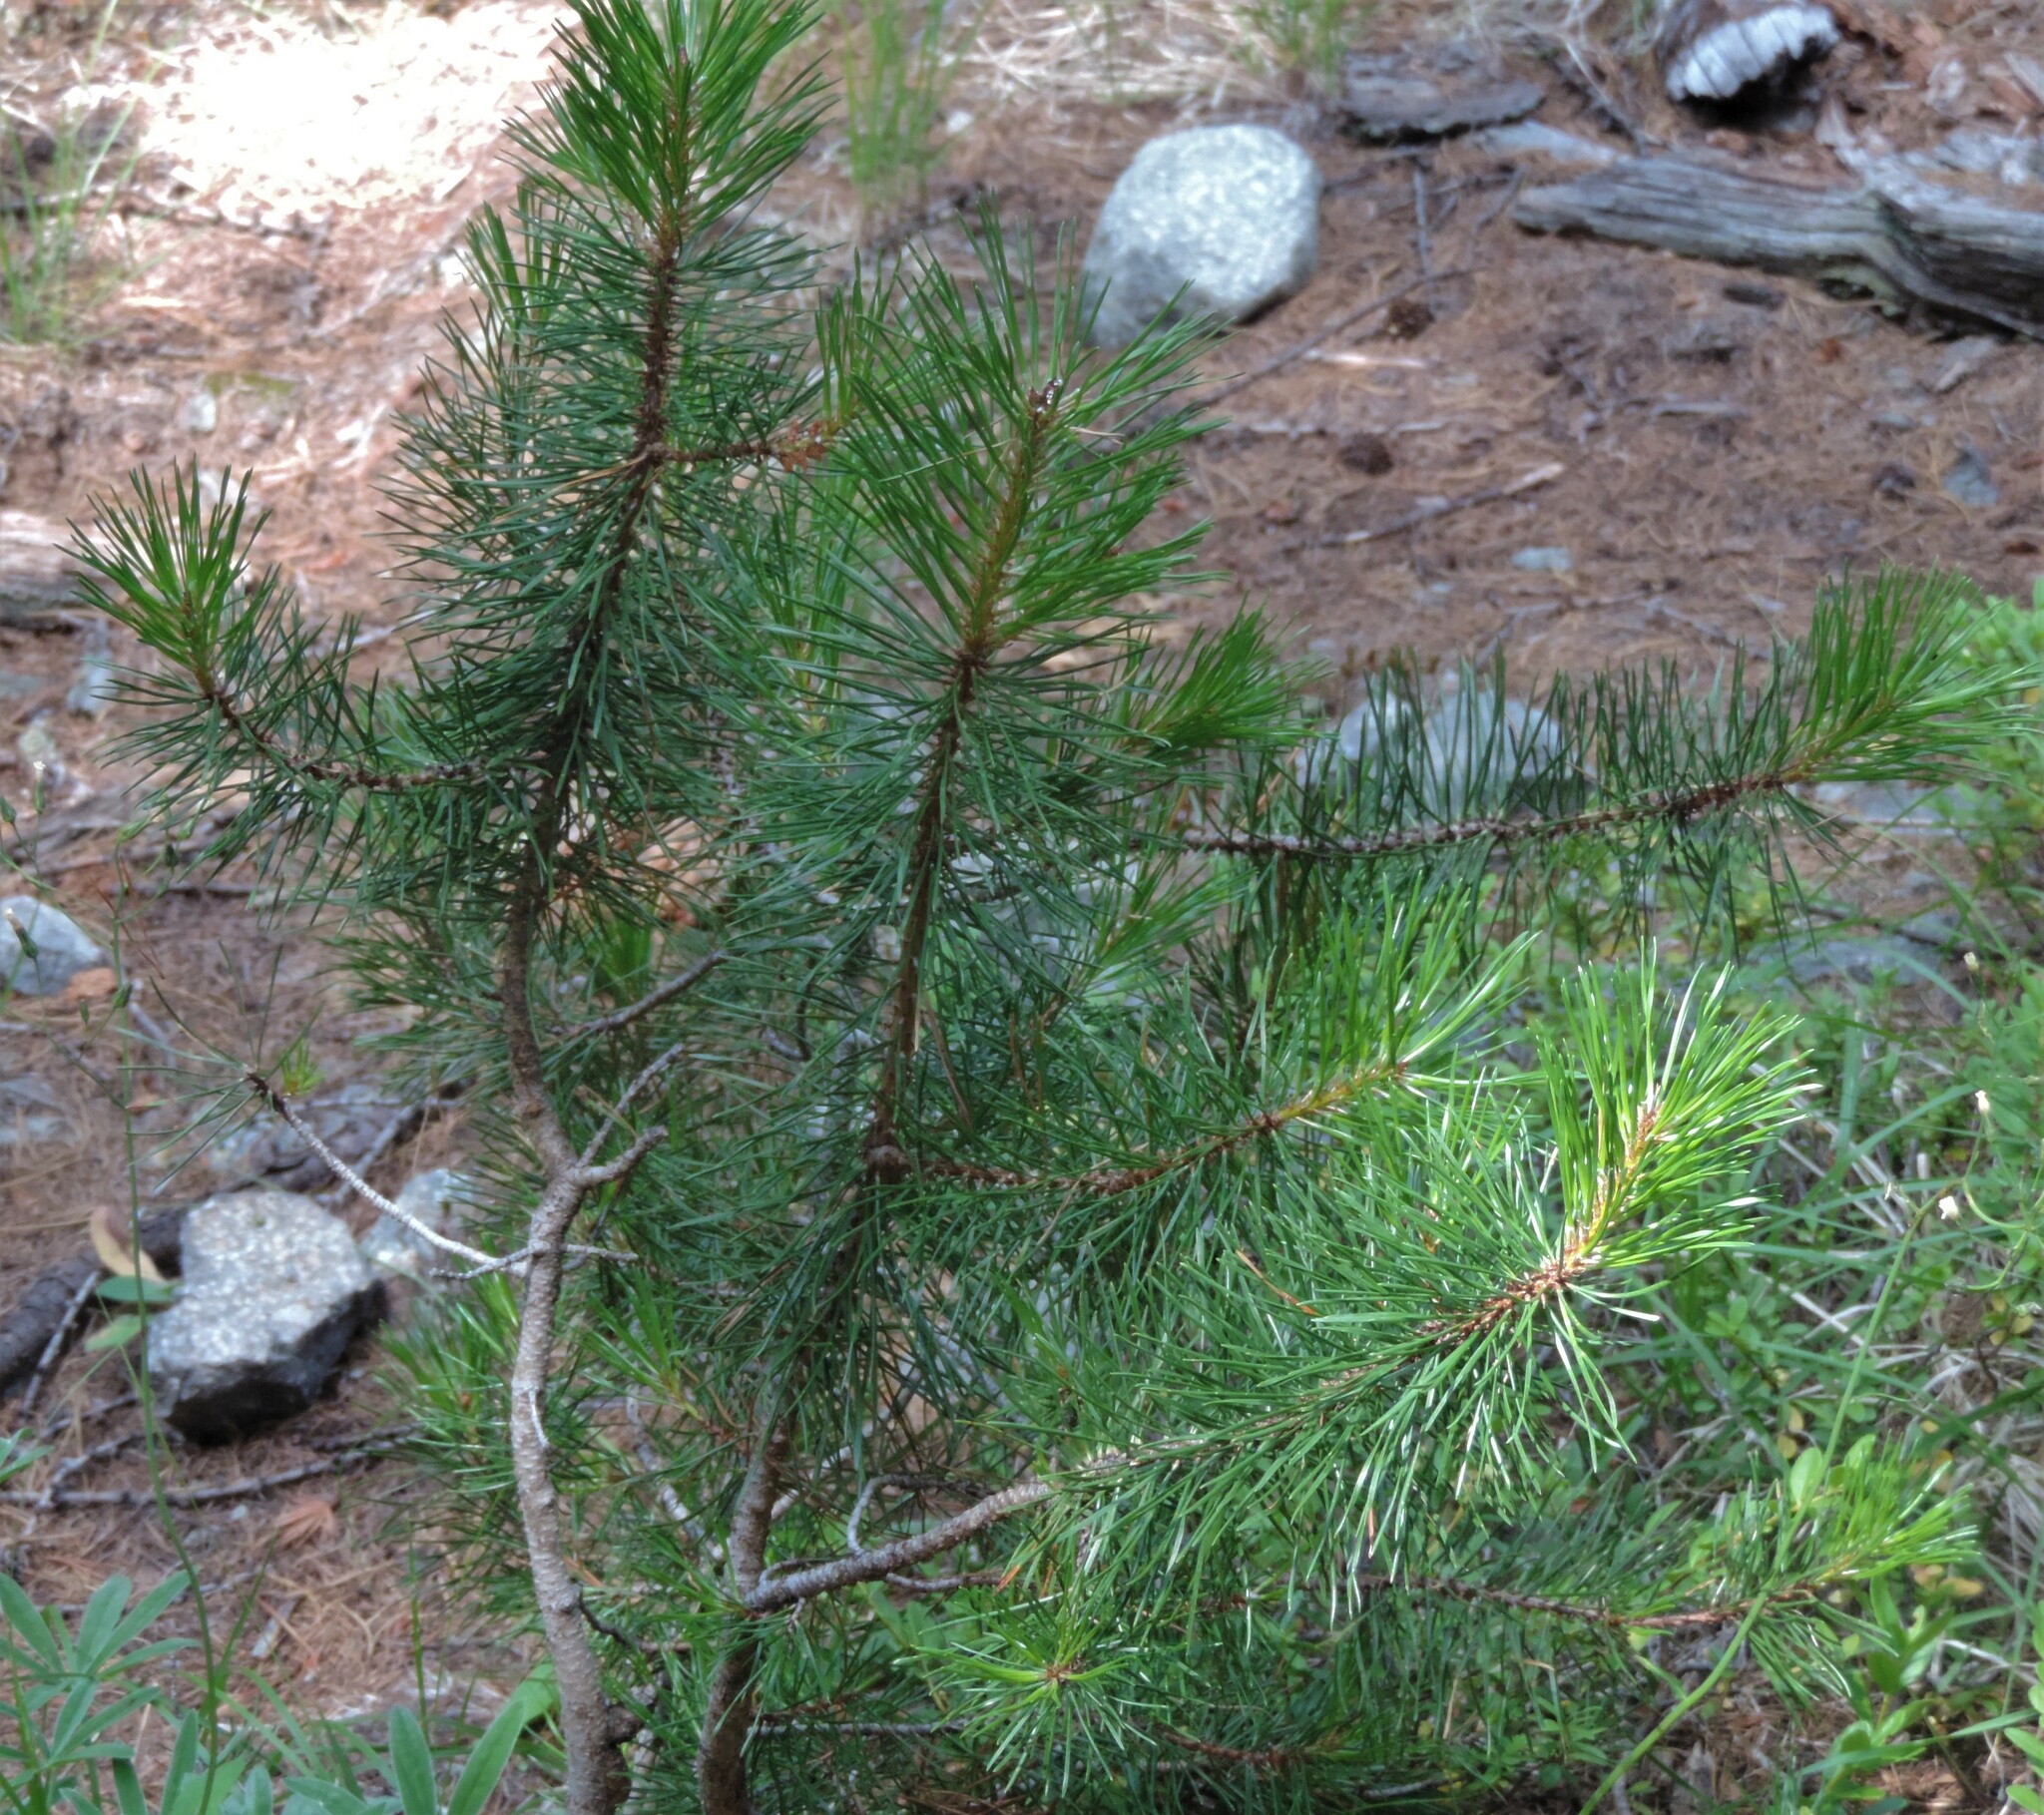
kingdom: Plantae
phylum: Tracheophyta
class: Pinopsida
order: Pinales
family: Pinaceae
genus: Pinus
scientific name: Pinus contorta
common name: Lodgepole pine
